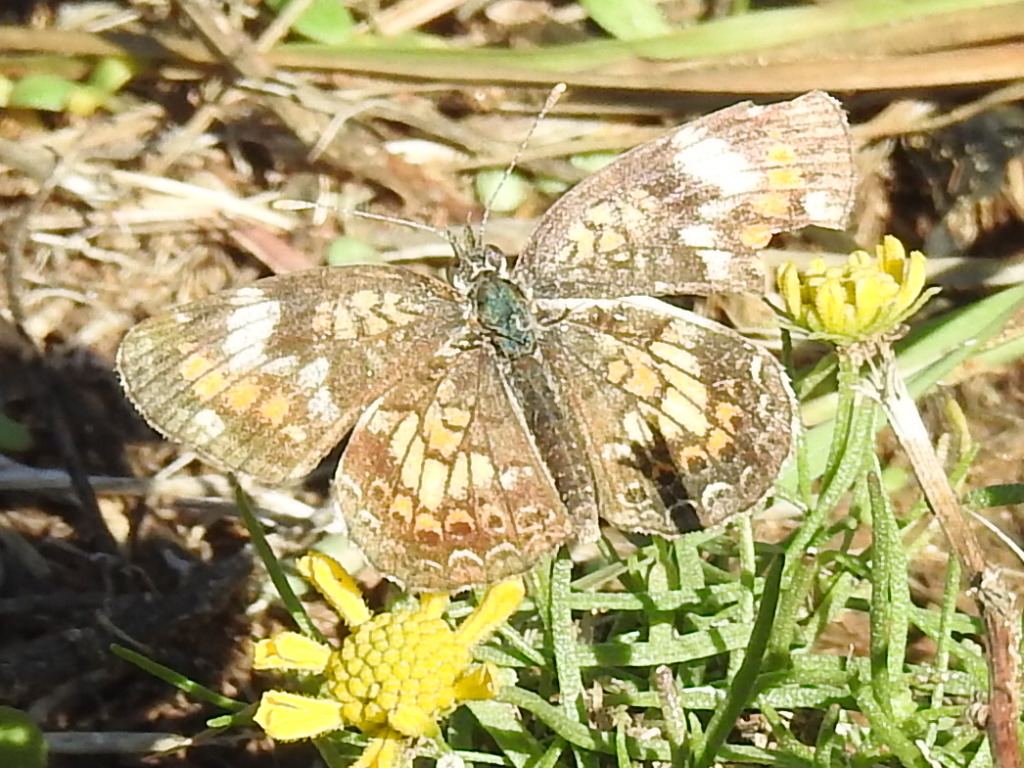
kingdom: Animalia
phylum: Arthropoda
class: Insecta
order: Lepidoptera
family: Nymphalidae
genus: Phyciodes
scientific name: Phyciodes phaon
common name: Phaon crescent
